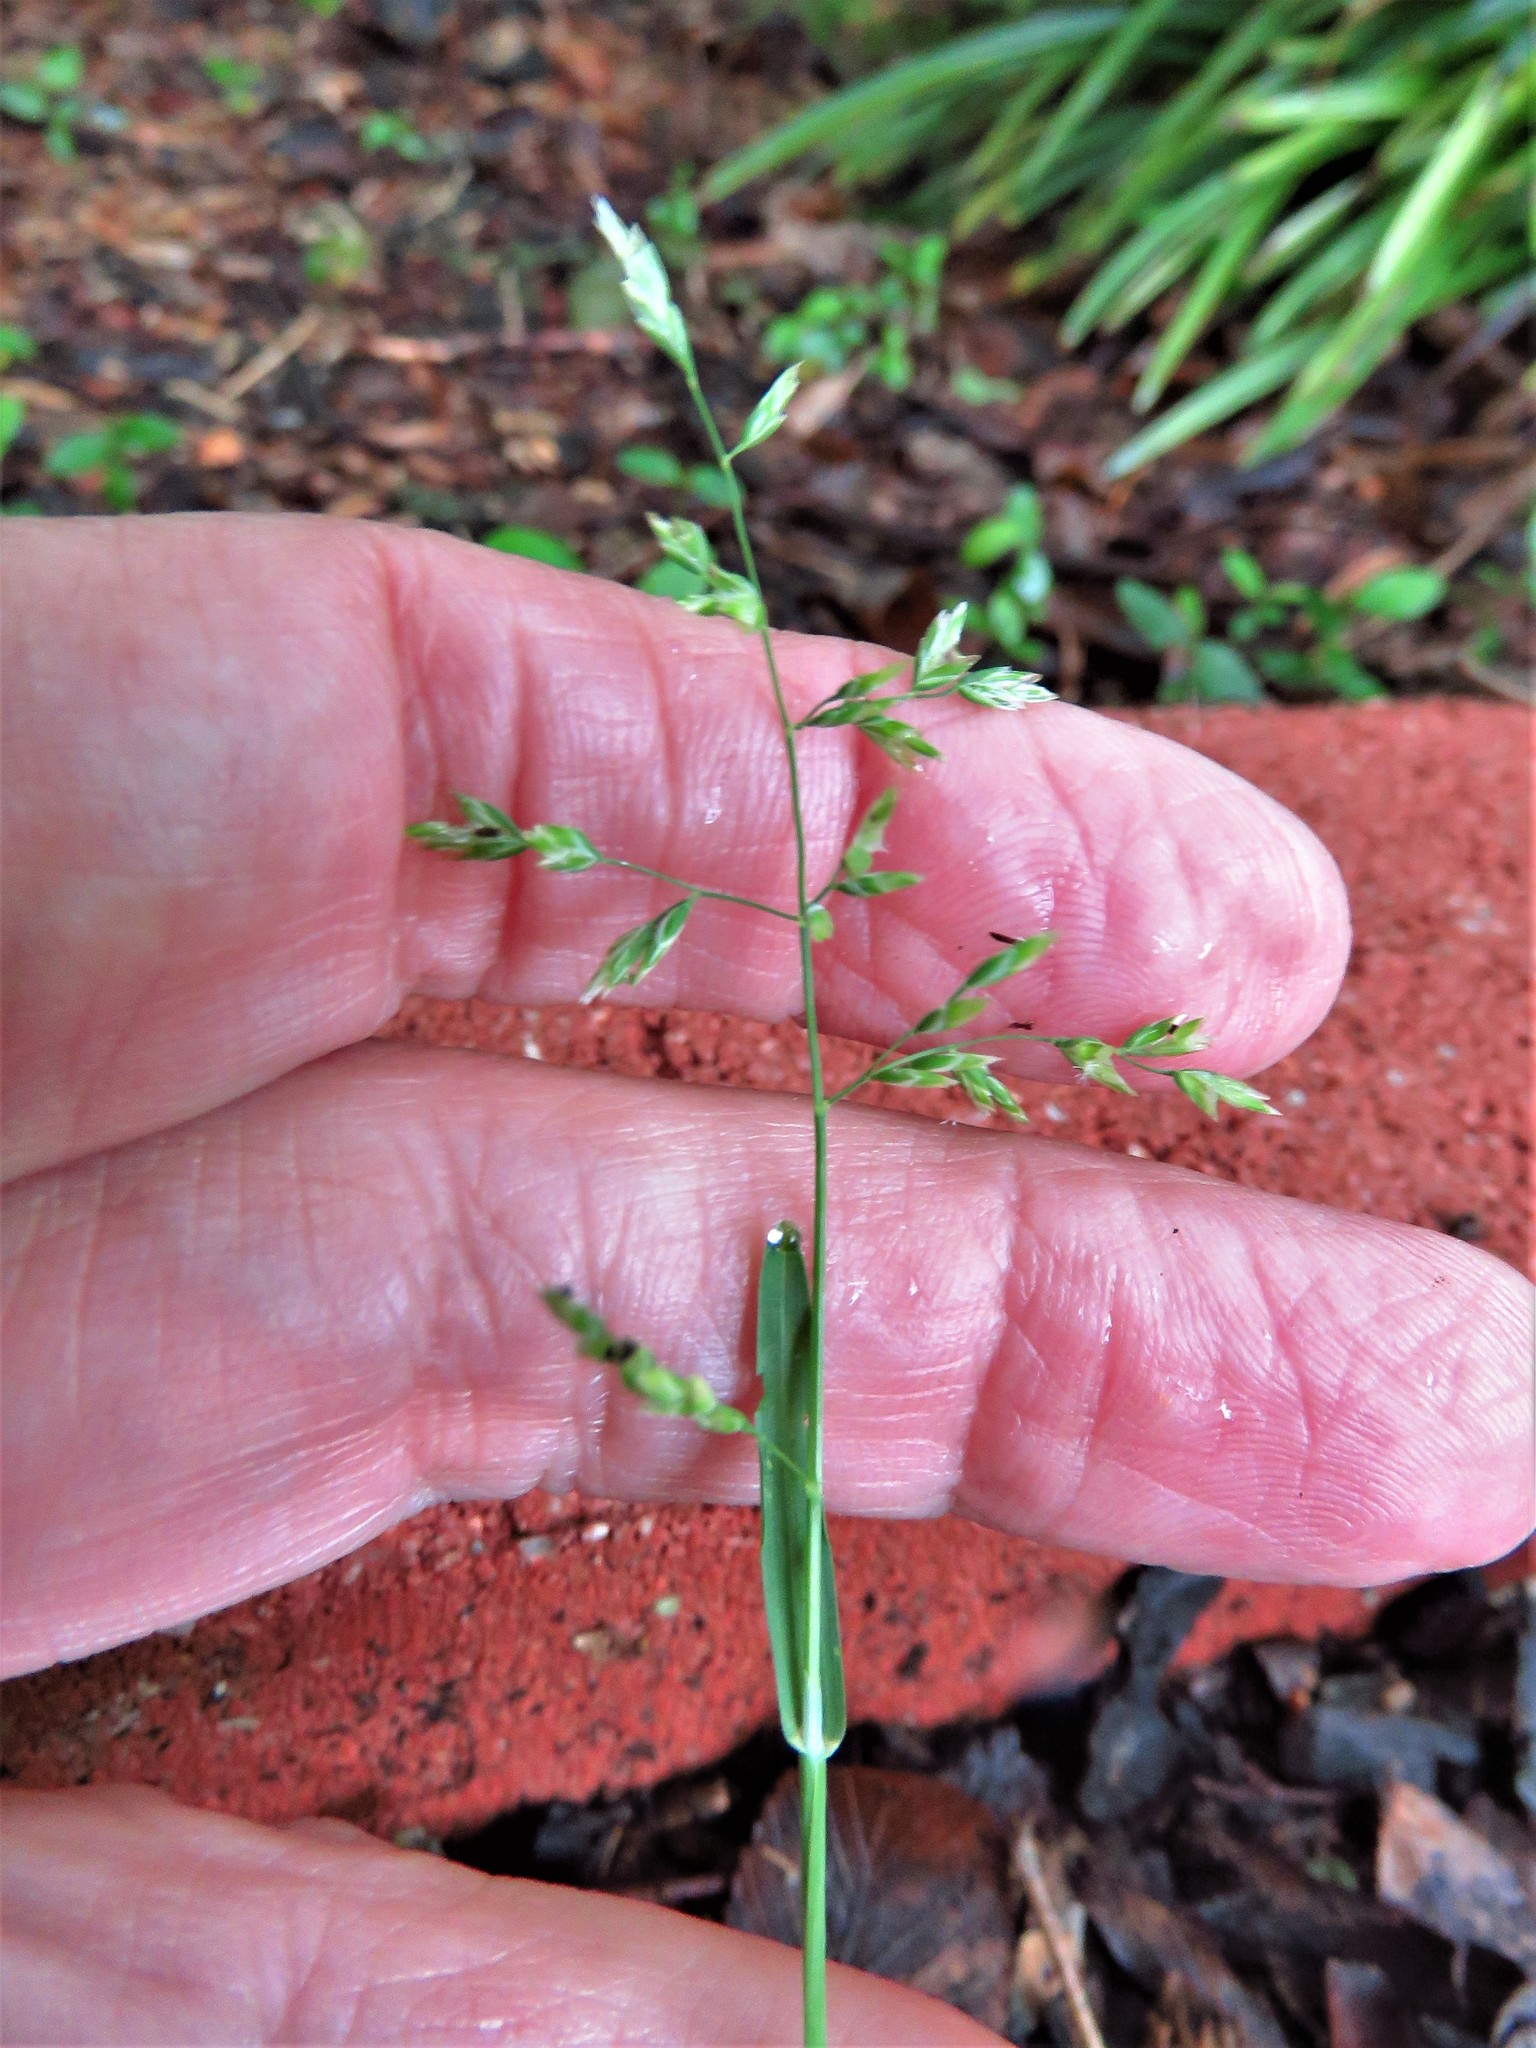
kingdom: Plantae
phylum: Tracheophyta
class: Liliopsida
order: Poales
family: Poaceae
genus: Poa
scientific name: Poa annua
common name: Annual bluegrass
